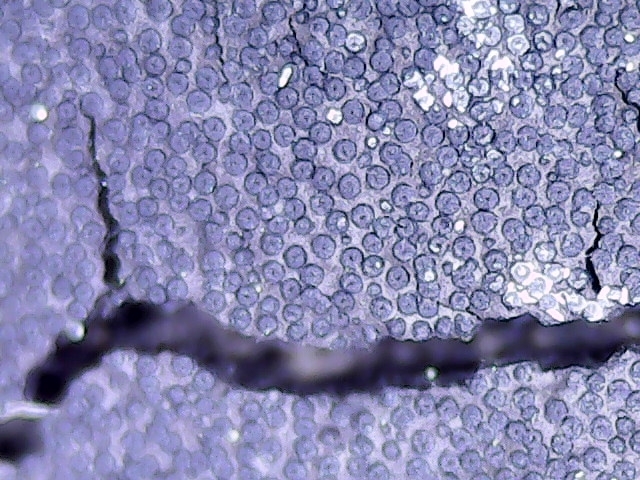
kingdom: Fungi
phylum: Ascomycota
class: Sordariomycetes
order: Xylariales
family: Graphostromataceae
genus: Graphostroma
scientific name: Graphostroma platystomum
